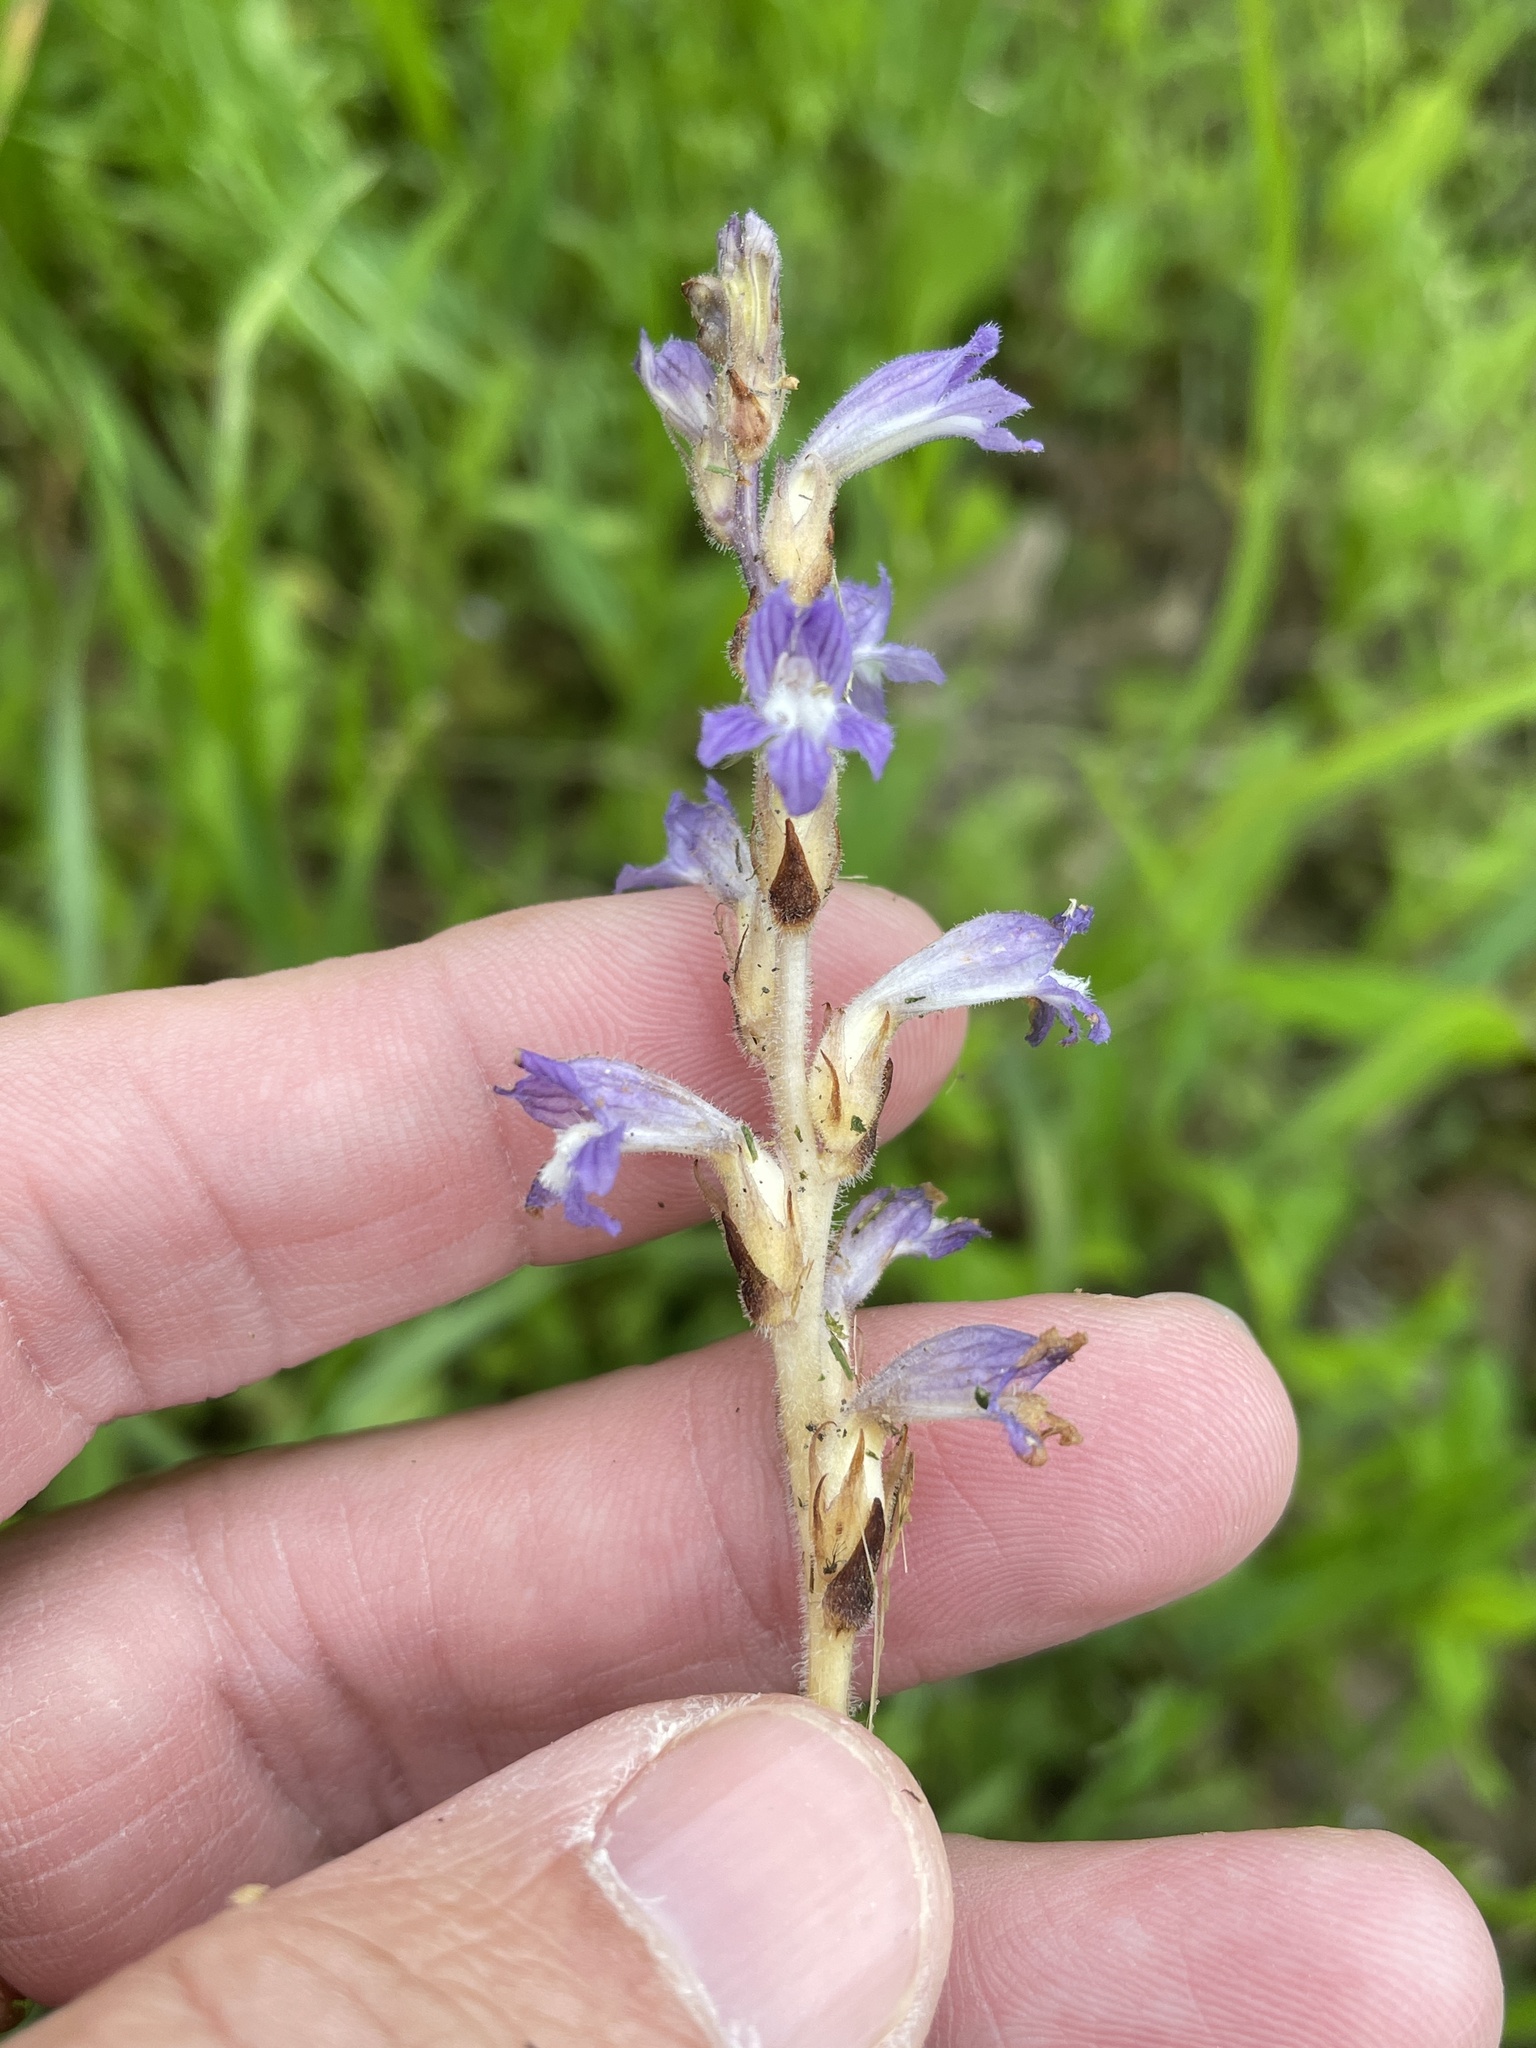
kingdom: Plantae
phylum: Tracheophyta
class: Magnoliopsida
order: Lamiales
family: Orobanchaceae
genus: Phelipanche
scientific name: Phelipanche mutelii
